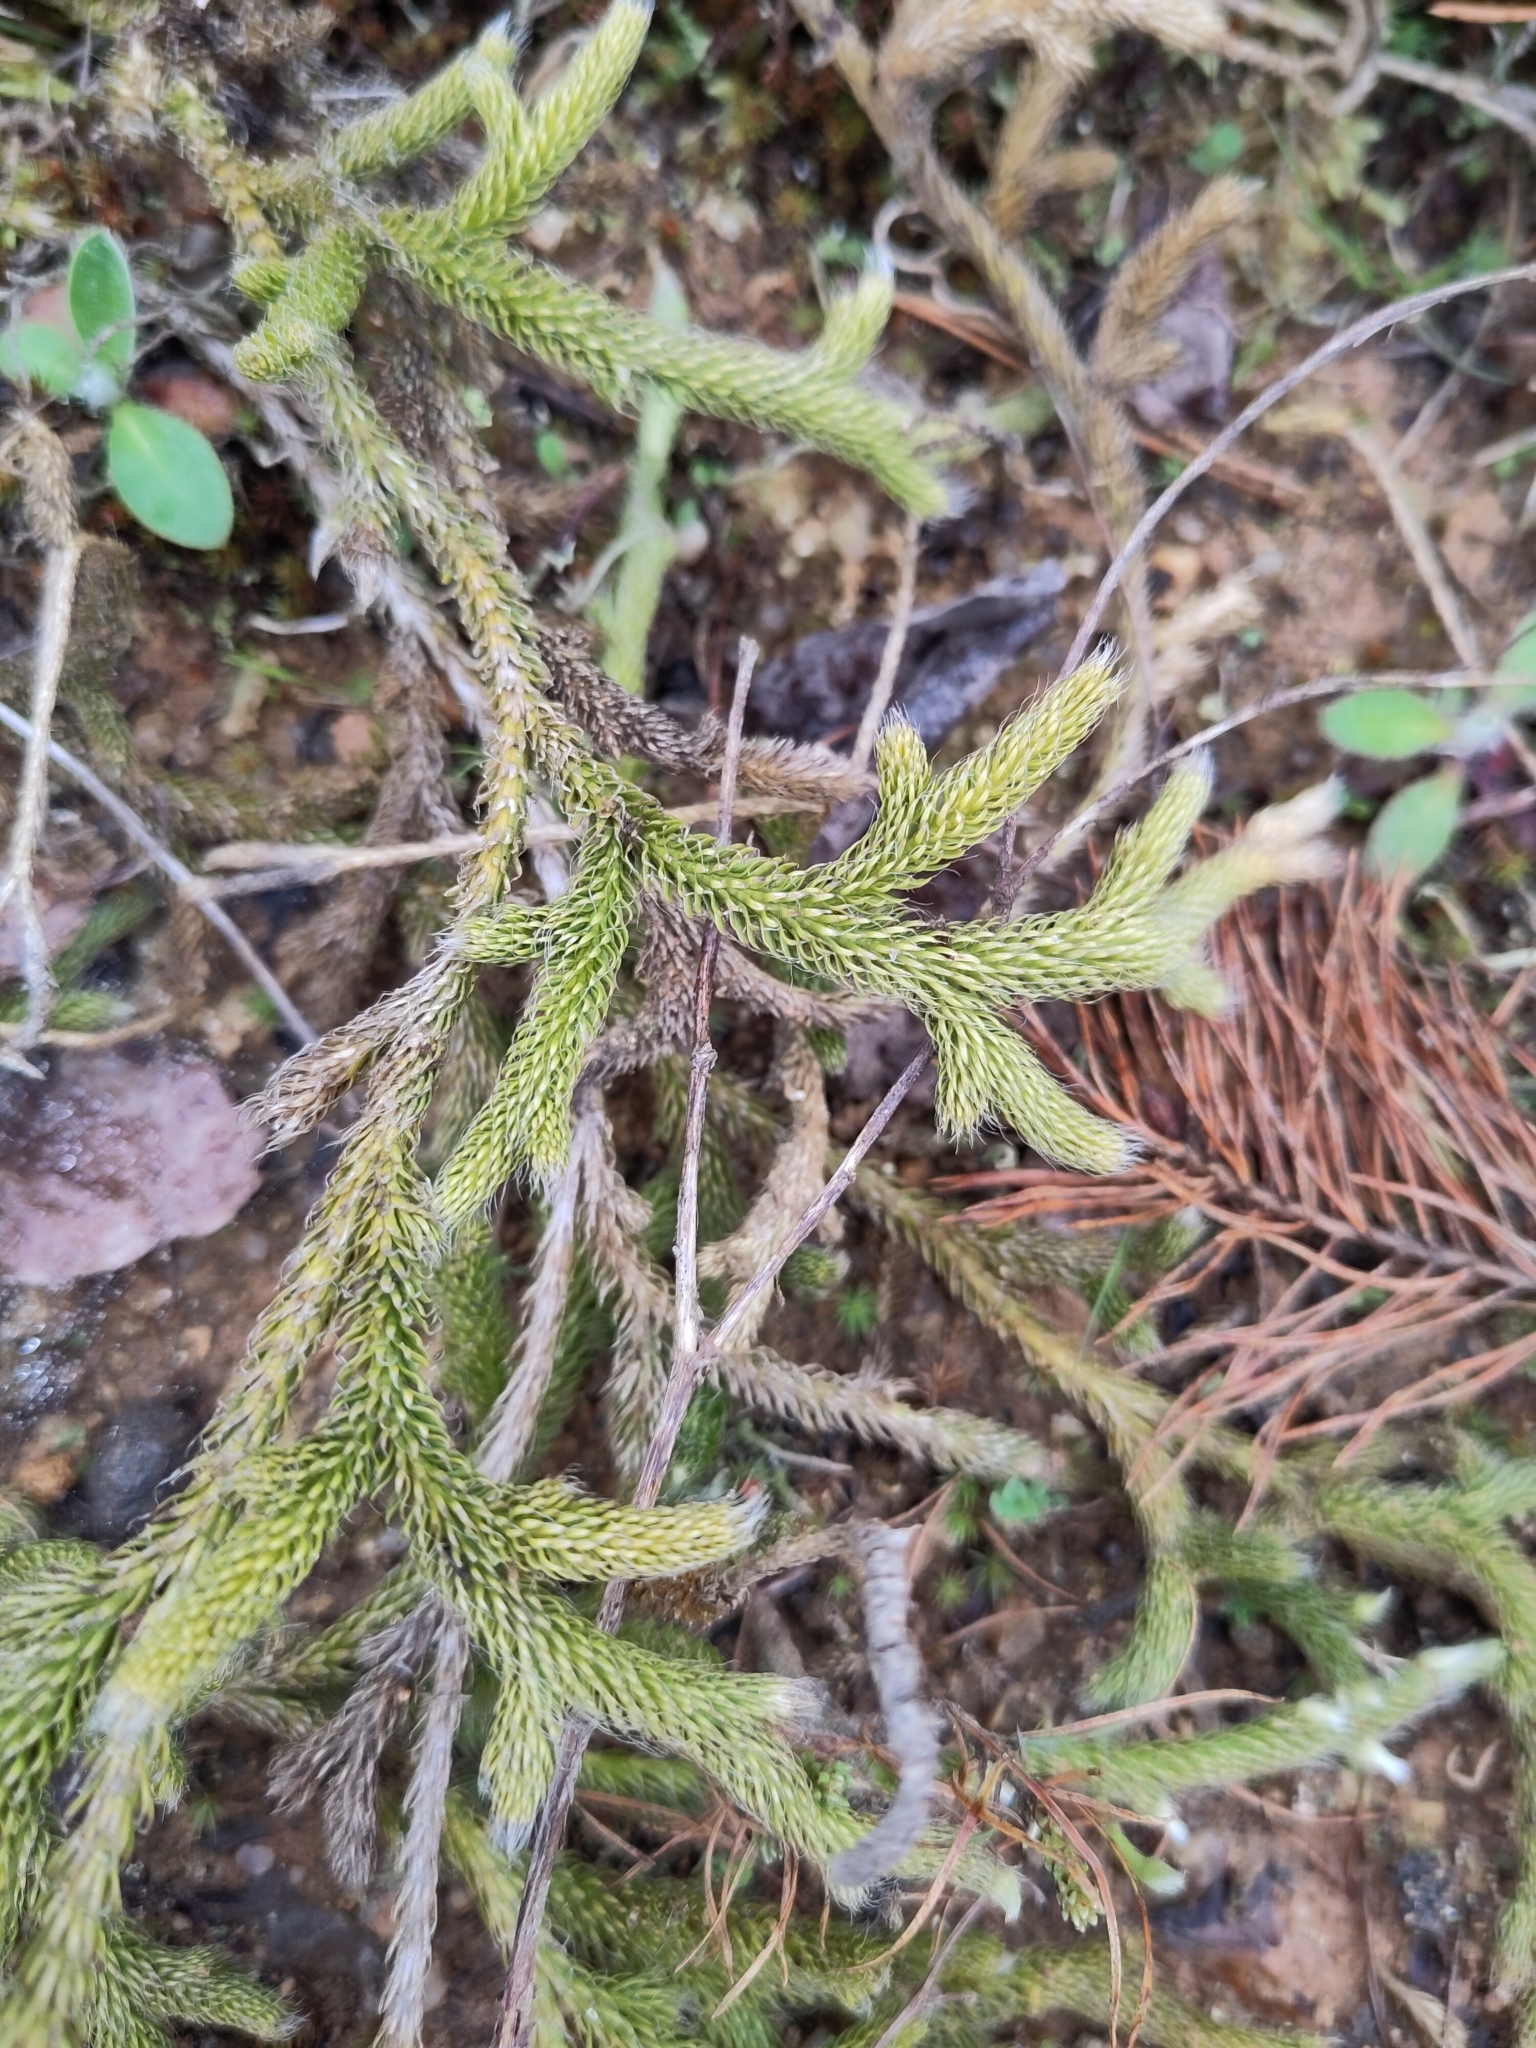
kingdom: Plantae
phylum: Tracheophyta
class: Lycopodiopsida
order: Lycopodiales
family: Lycopodiaceae
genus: Lycopodium
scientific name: Lycopodium clavatum
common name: Stag's-horn clubmoss
